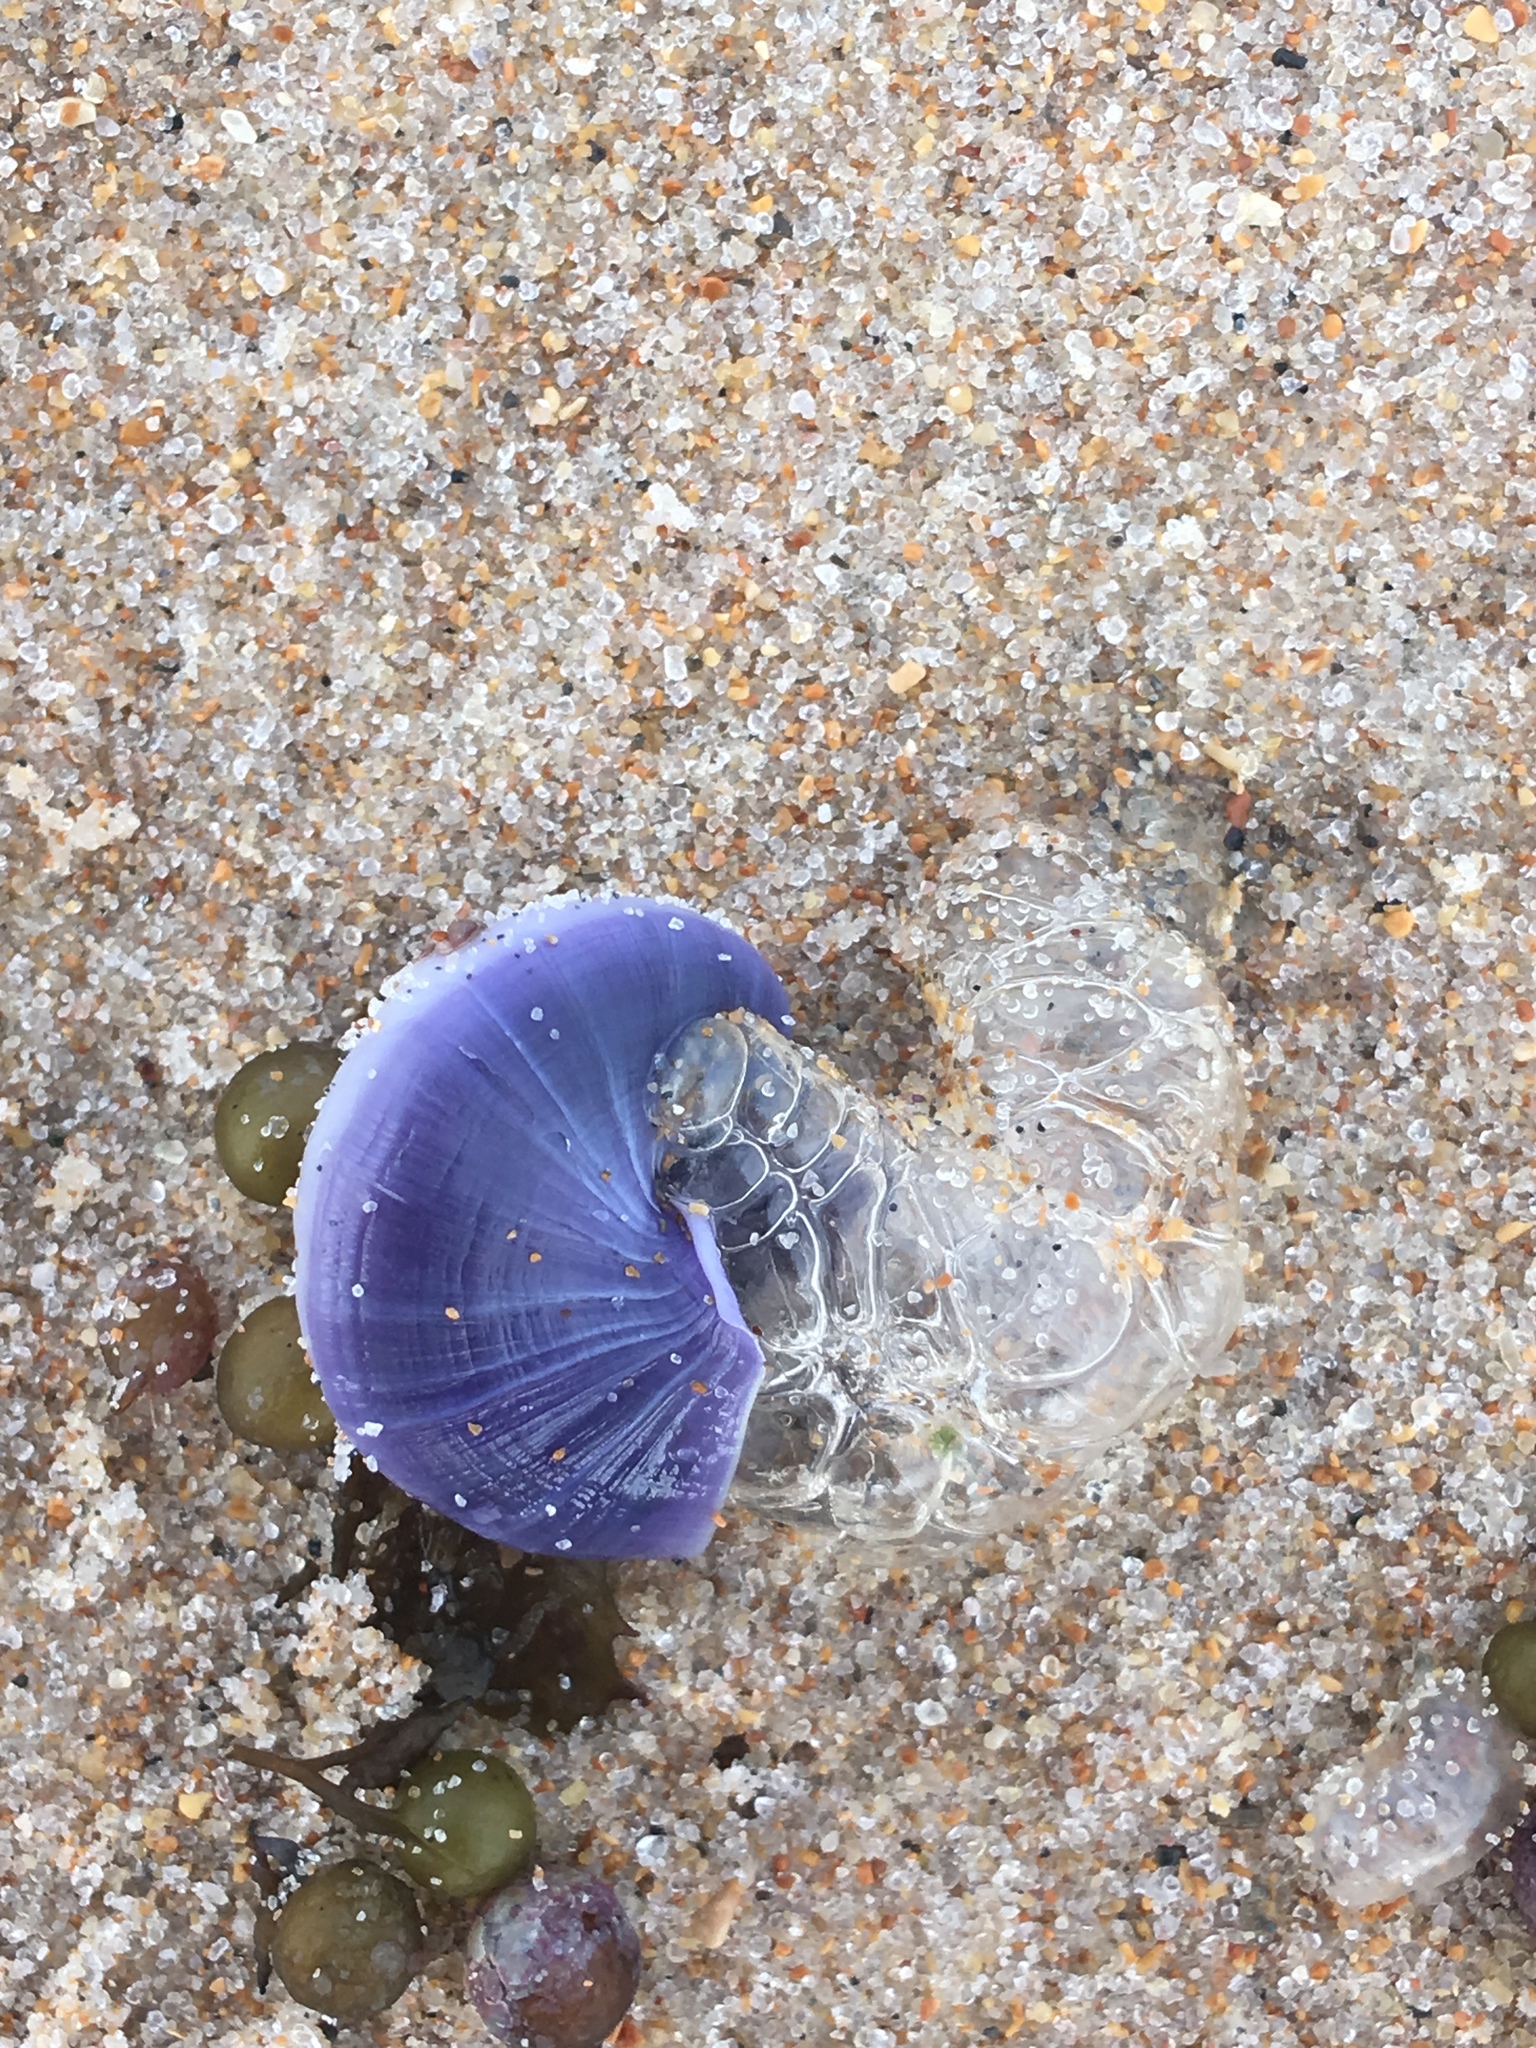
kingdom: Animalia
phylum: Mollusca
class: Gastropoda
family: Epitoniidae
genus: Janthina
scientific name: Janthina janthina
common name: Common janthina
